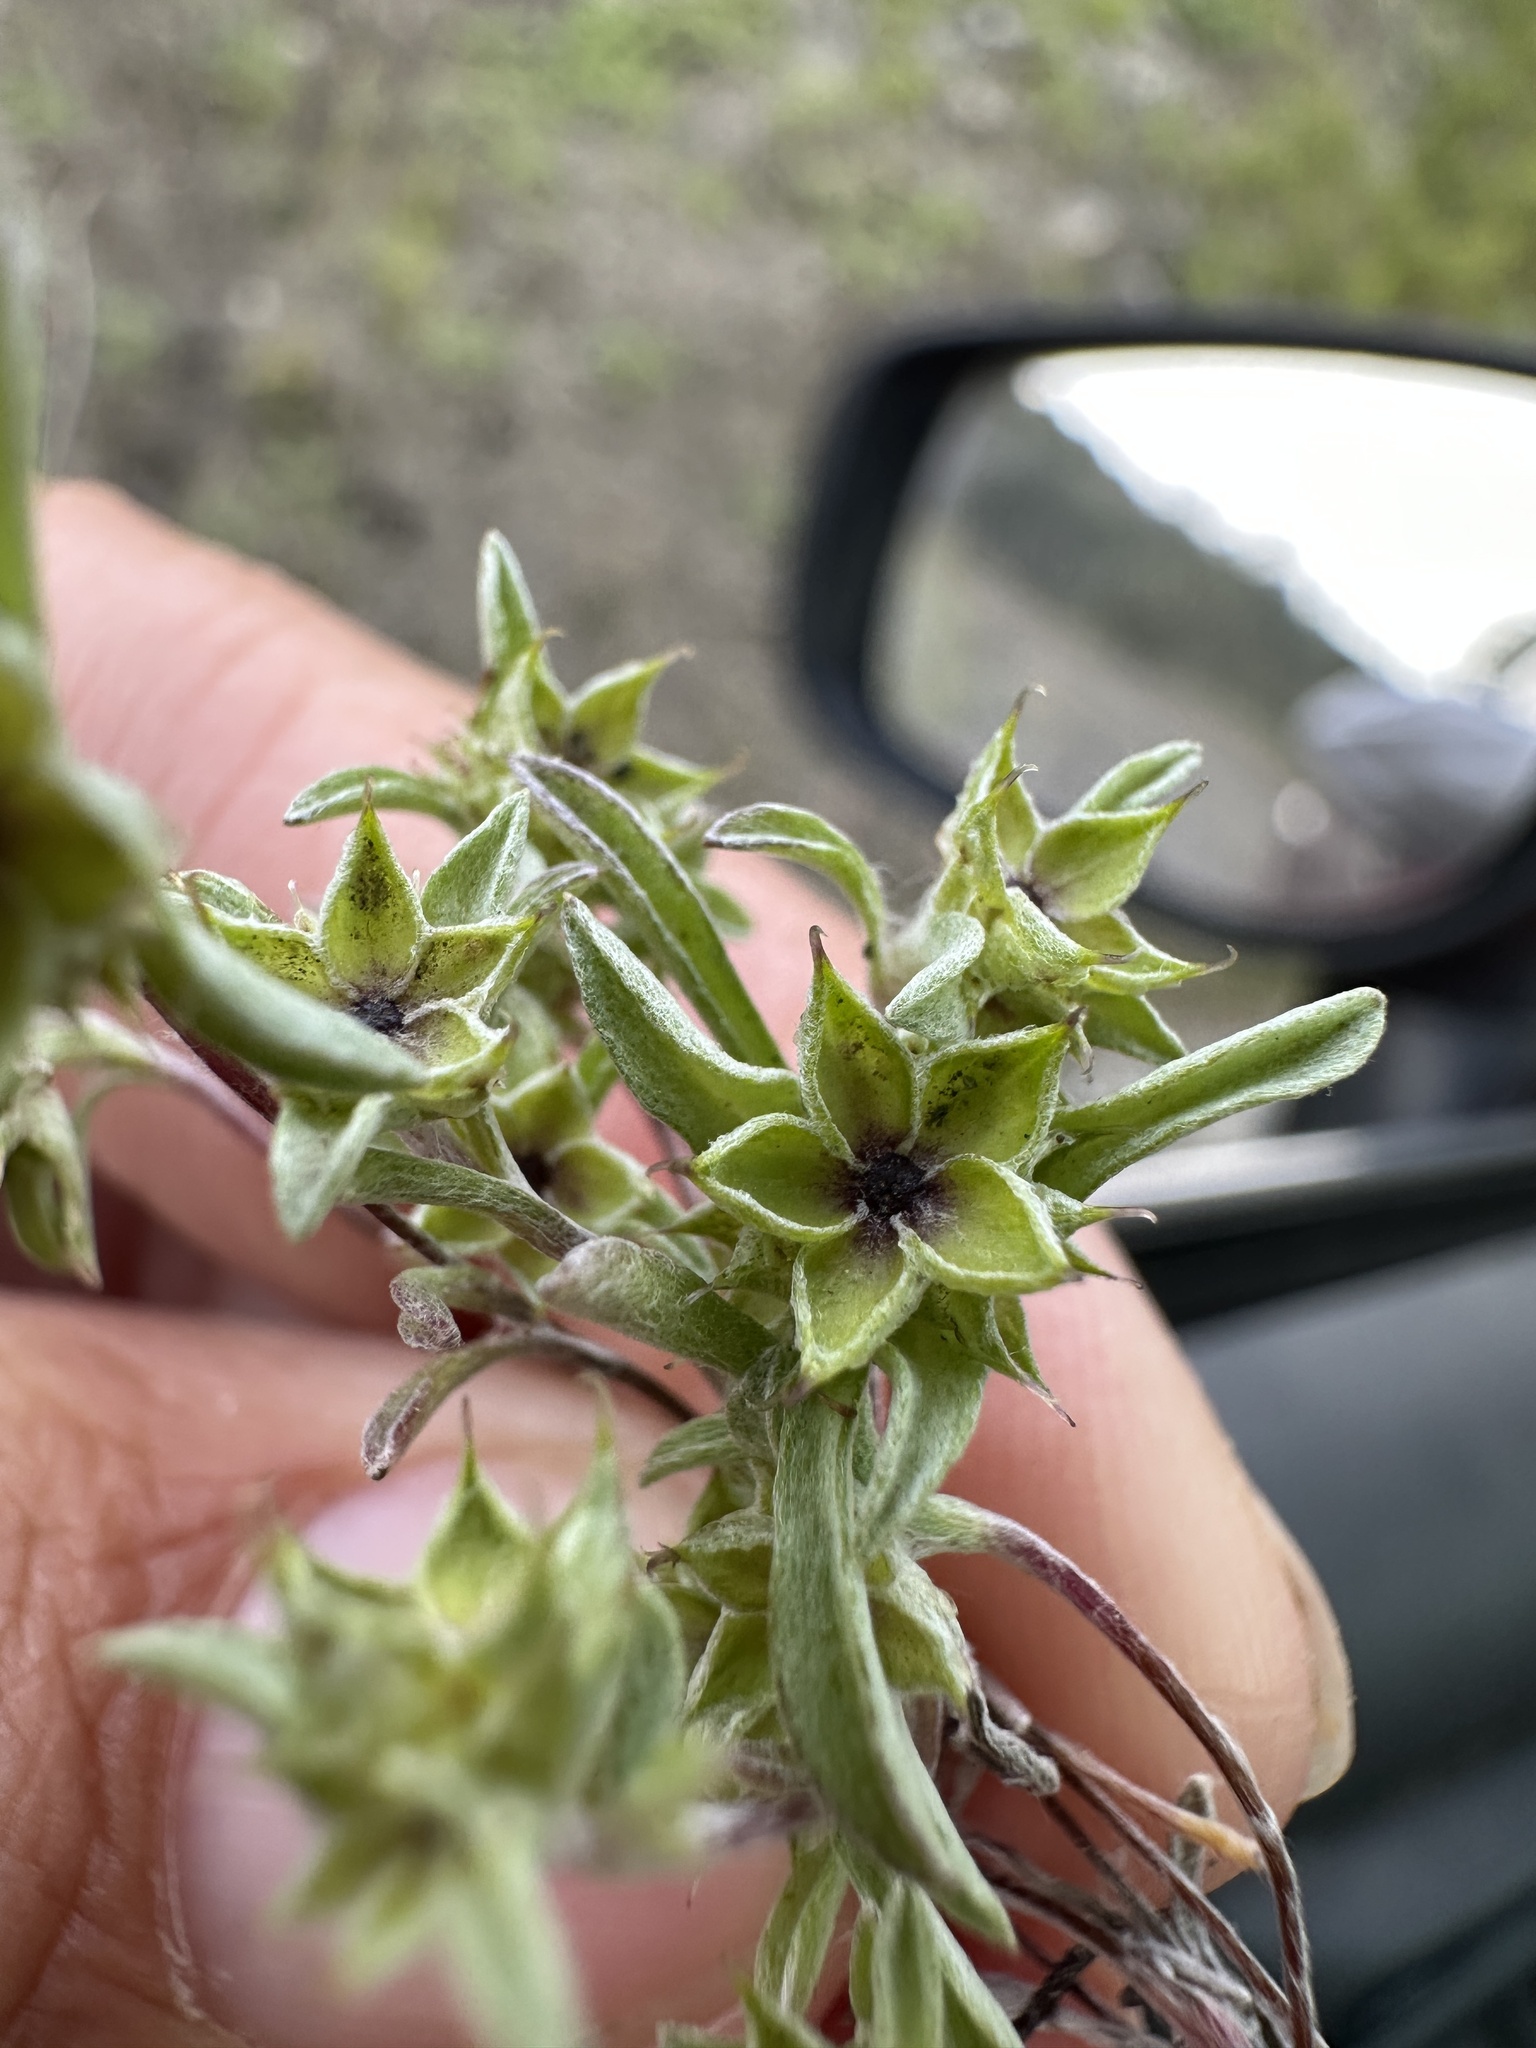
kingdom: Plantae
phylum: Tracheophyta
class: Magnoliopsida
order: Asterales
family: Asteraceae
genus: Ancistrocarphus
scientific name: Ancistrocarphus filagineus
